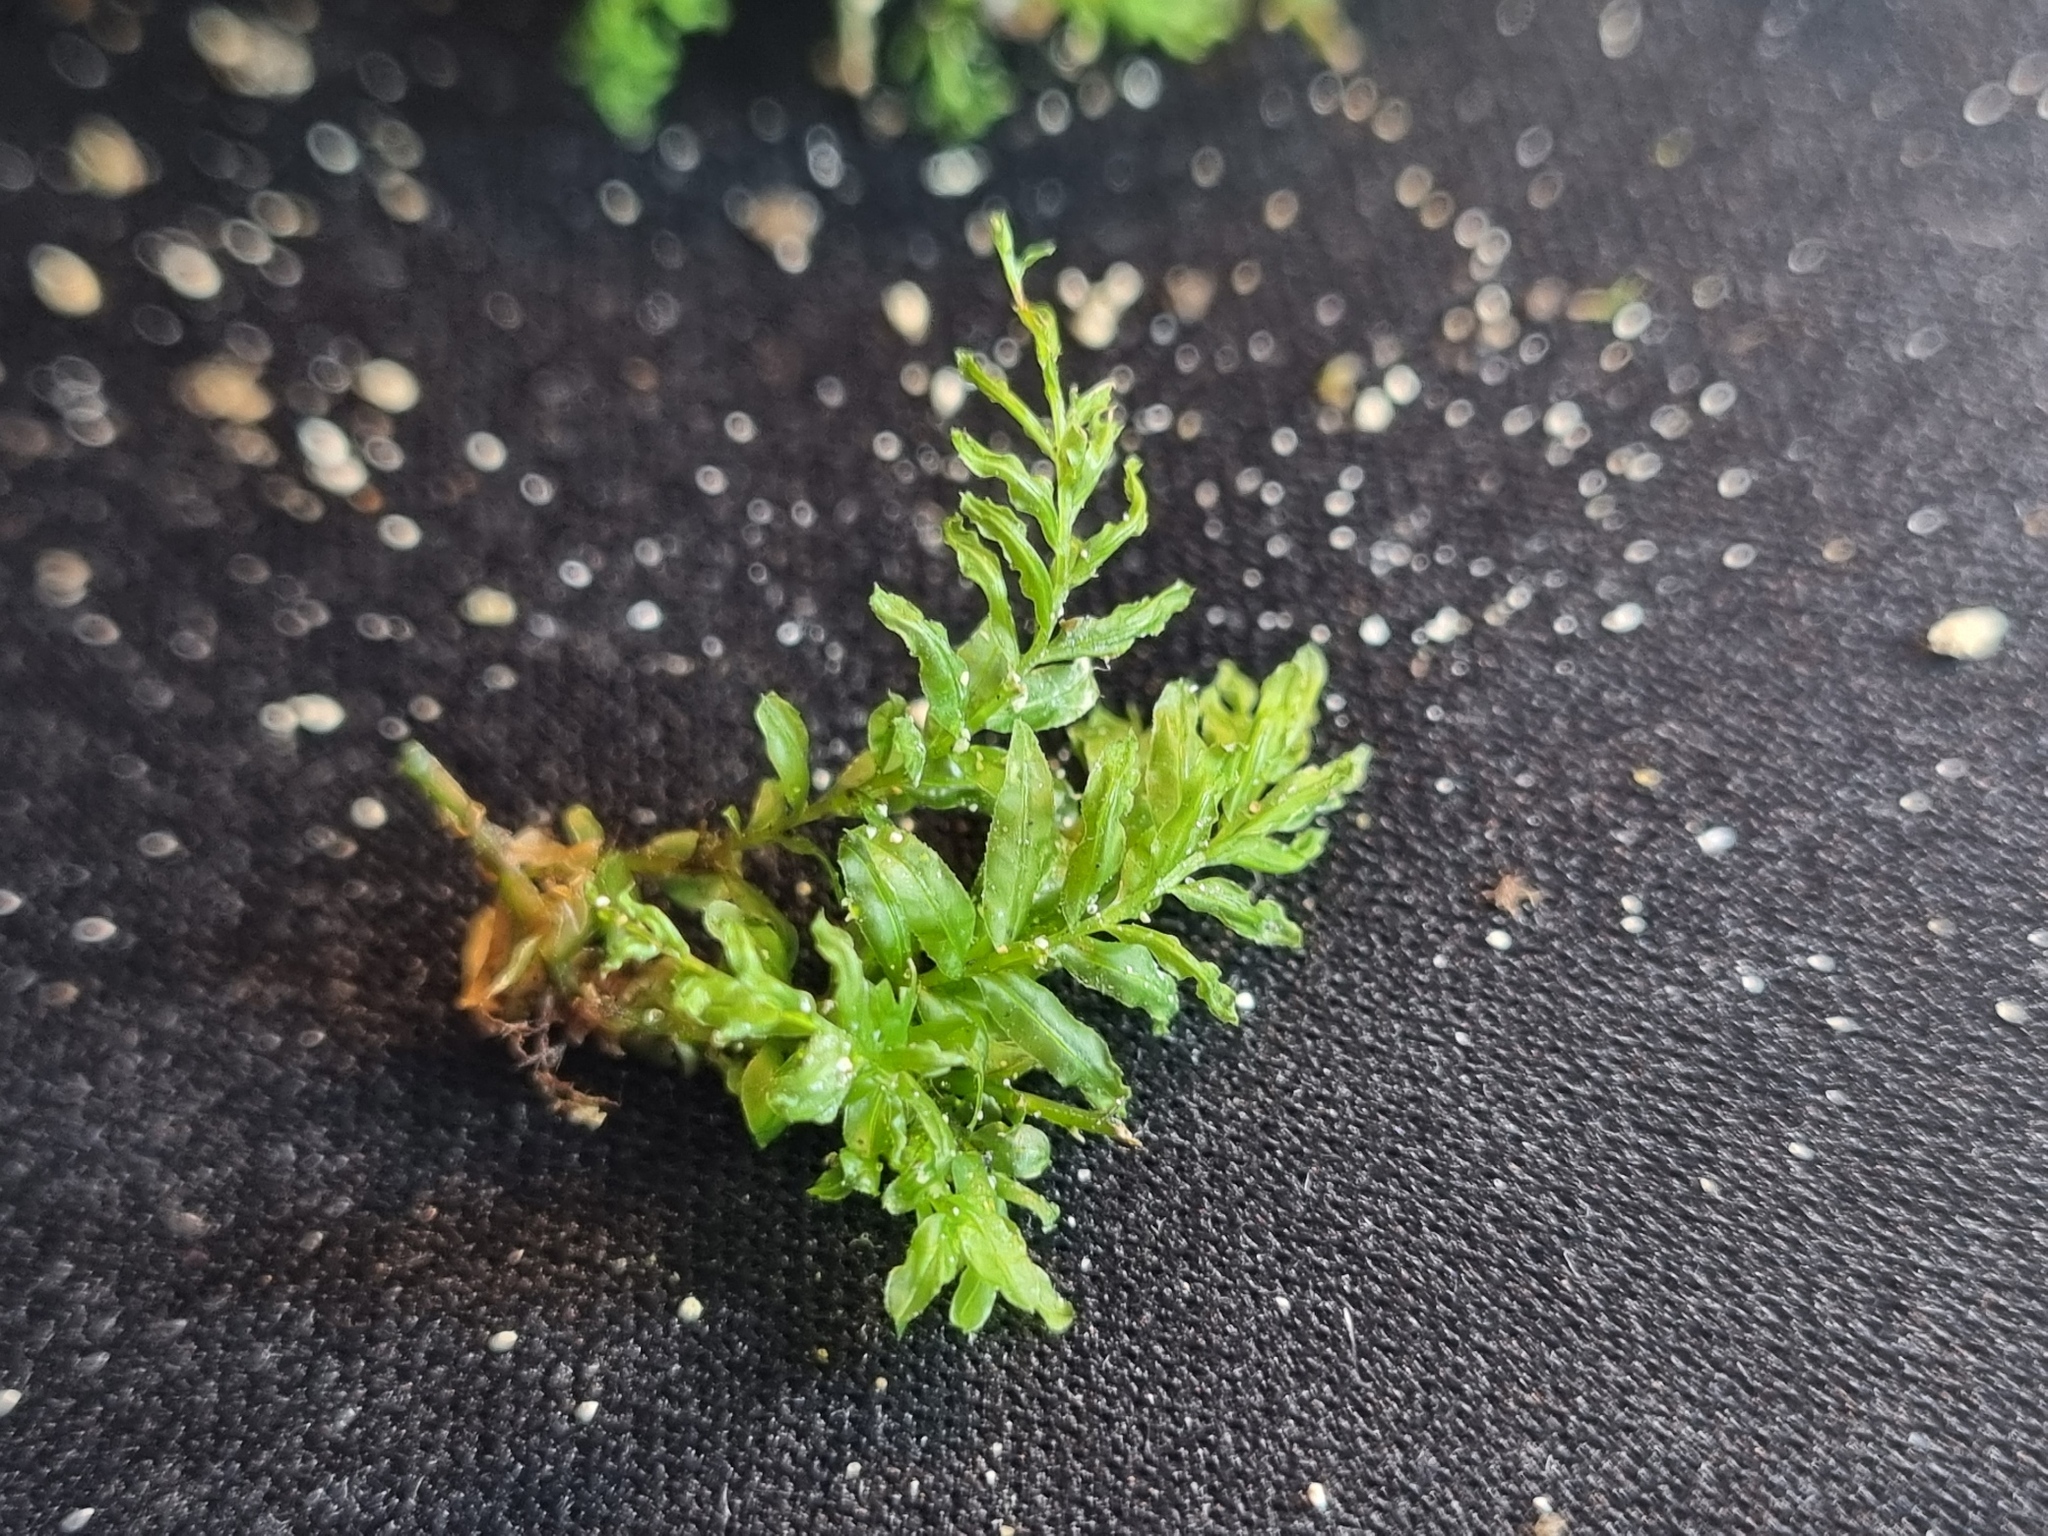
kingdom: Plantae
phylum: Bryophyta
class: Bryopsida
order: Bryales
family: Mniaceae
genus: Plagiomnium
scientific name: Plagiomnium undulatum
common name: Hart's-tongue thyme-moss
